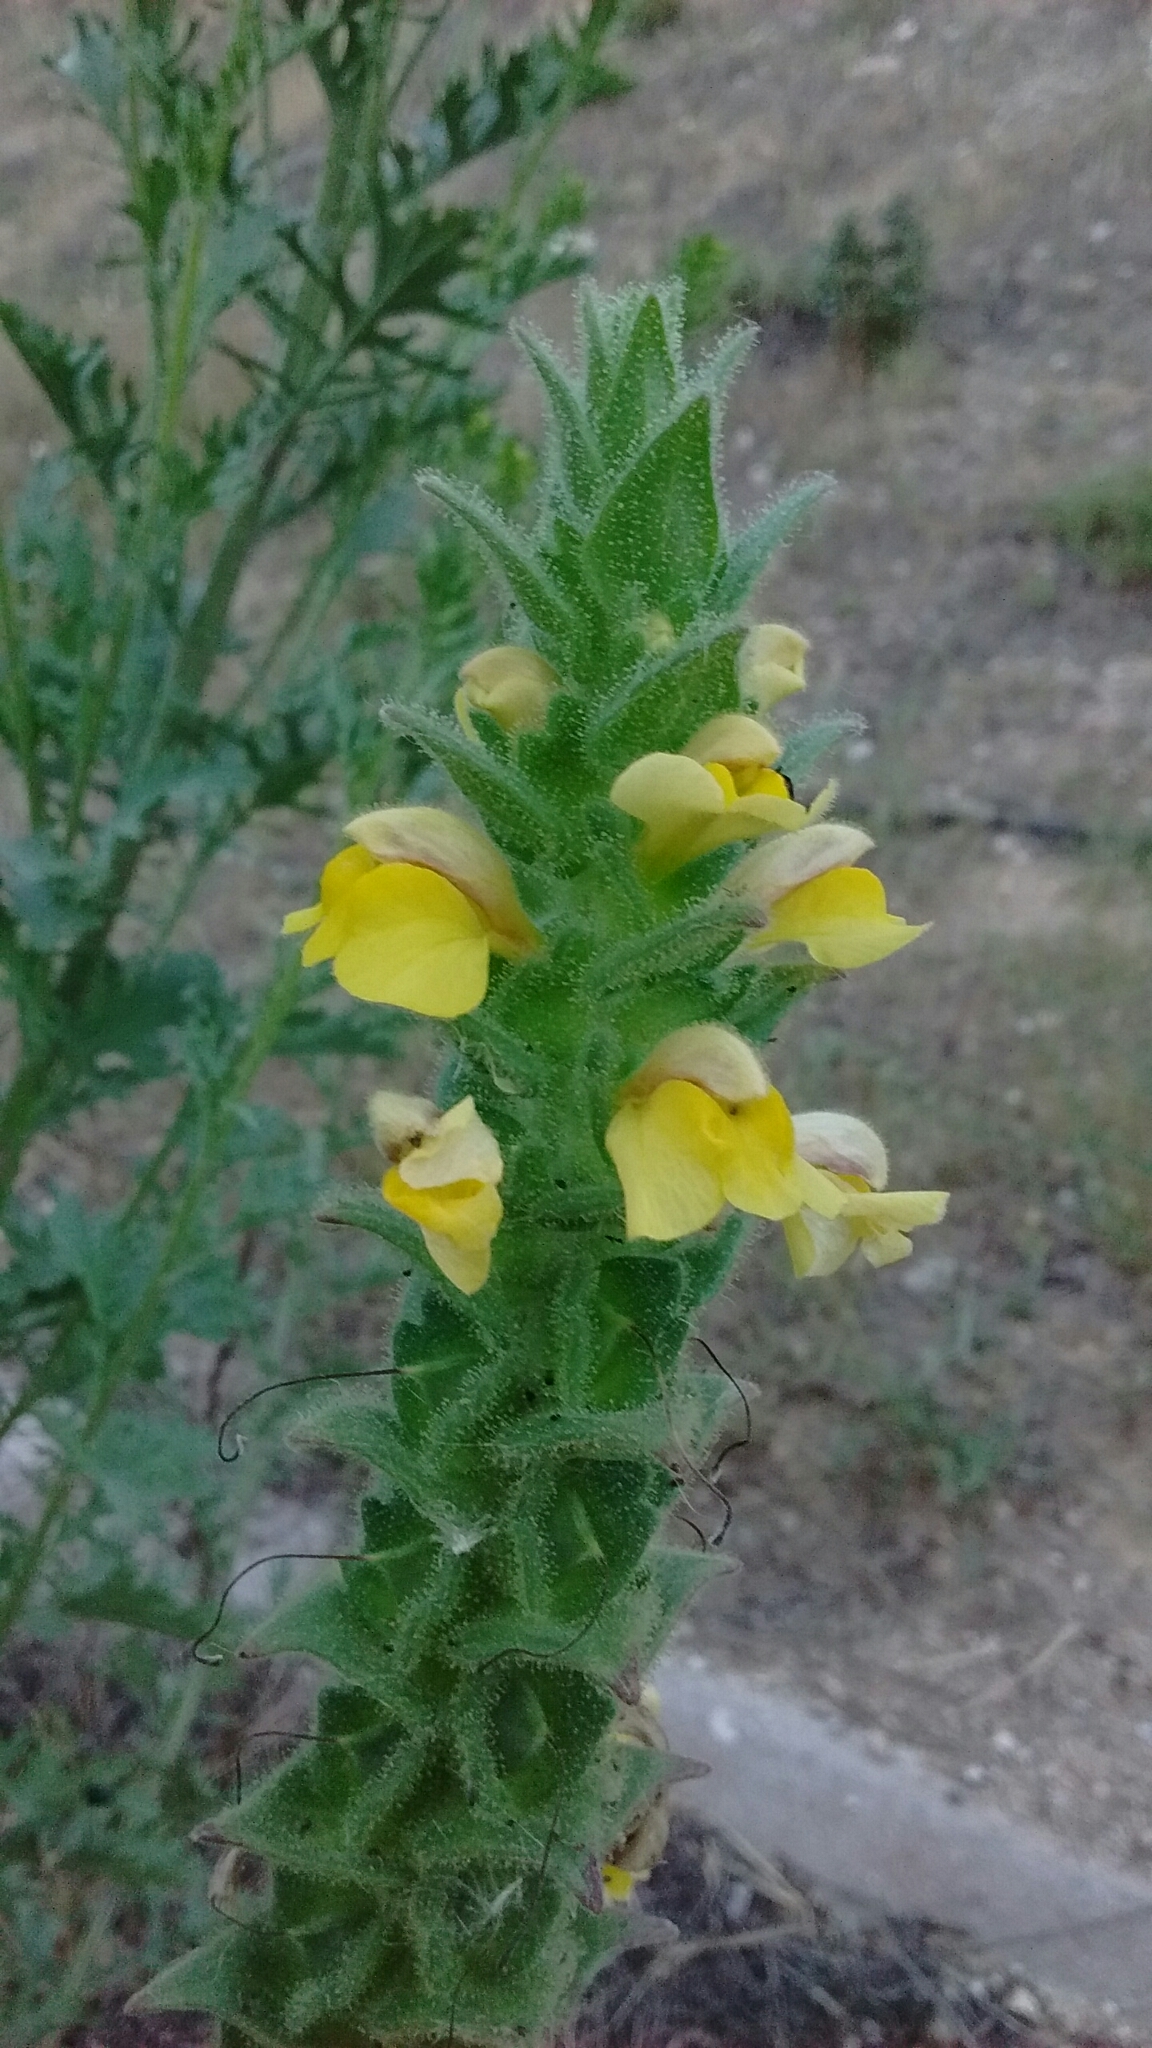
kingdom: Plantae
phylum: Tracheophyta
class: Magnoliopsida
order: Lamiales
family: Orobanchaceae
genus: Bellardia
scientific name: Bellardia trixago
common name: Mediterranean lineseed
